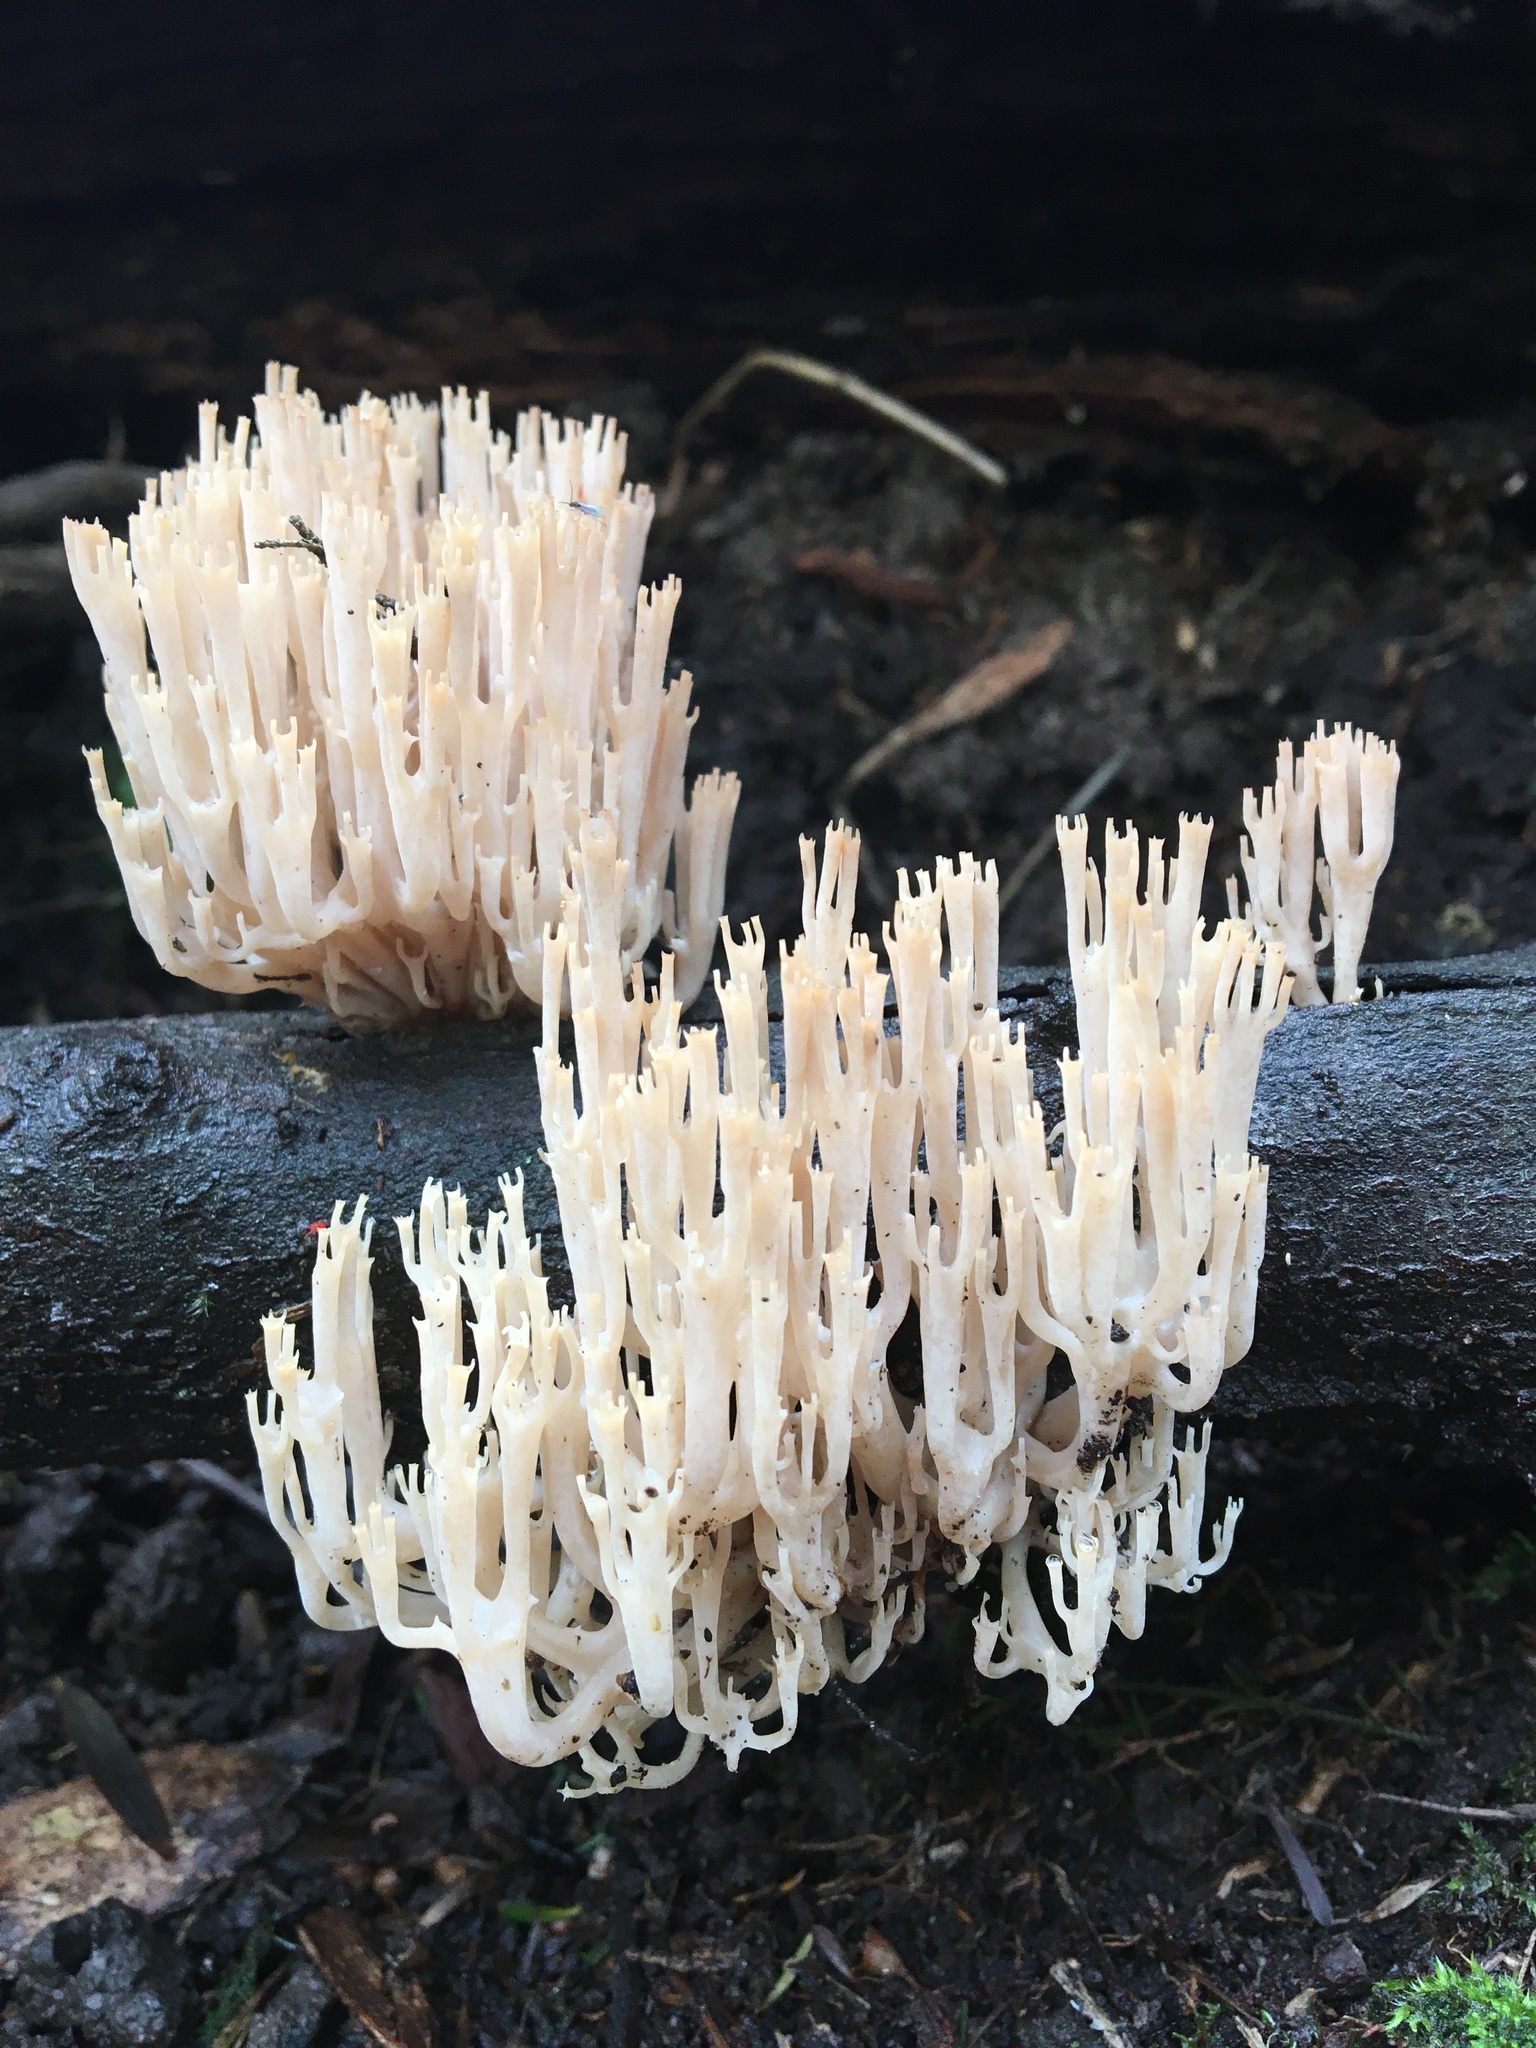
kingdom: Fungi
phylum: Basidiomycota
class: Agaricomycetes
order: Russulales
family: Auriscalpiaceae
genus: Artomyces
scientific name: Artomyces austropiperatus
